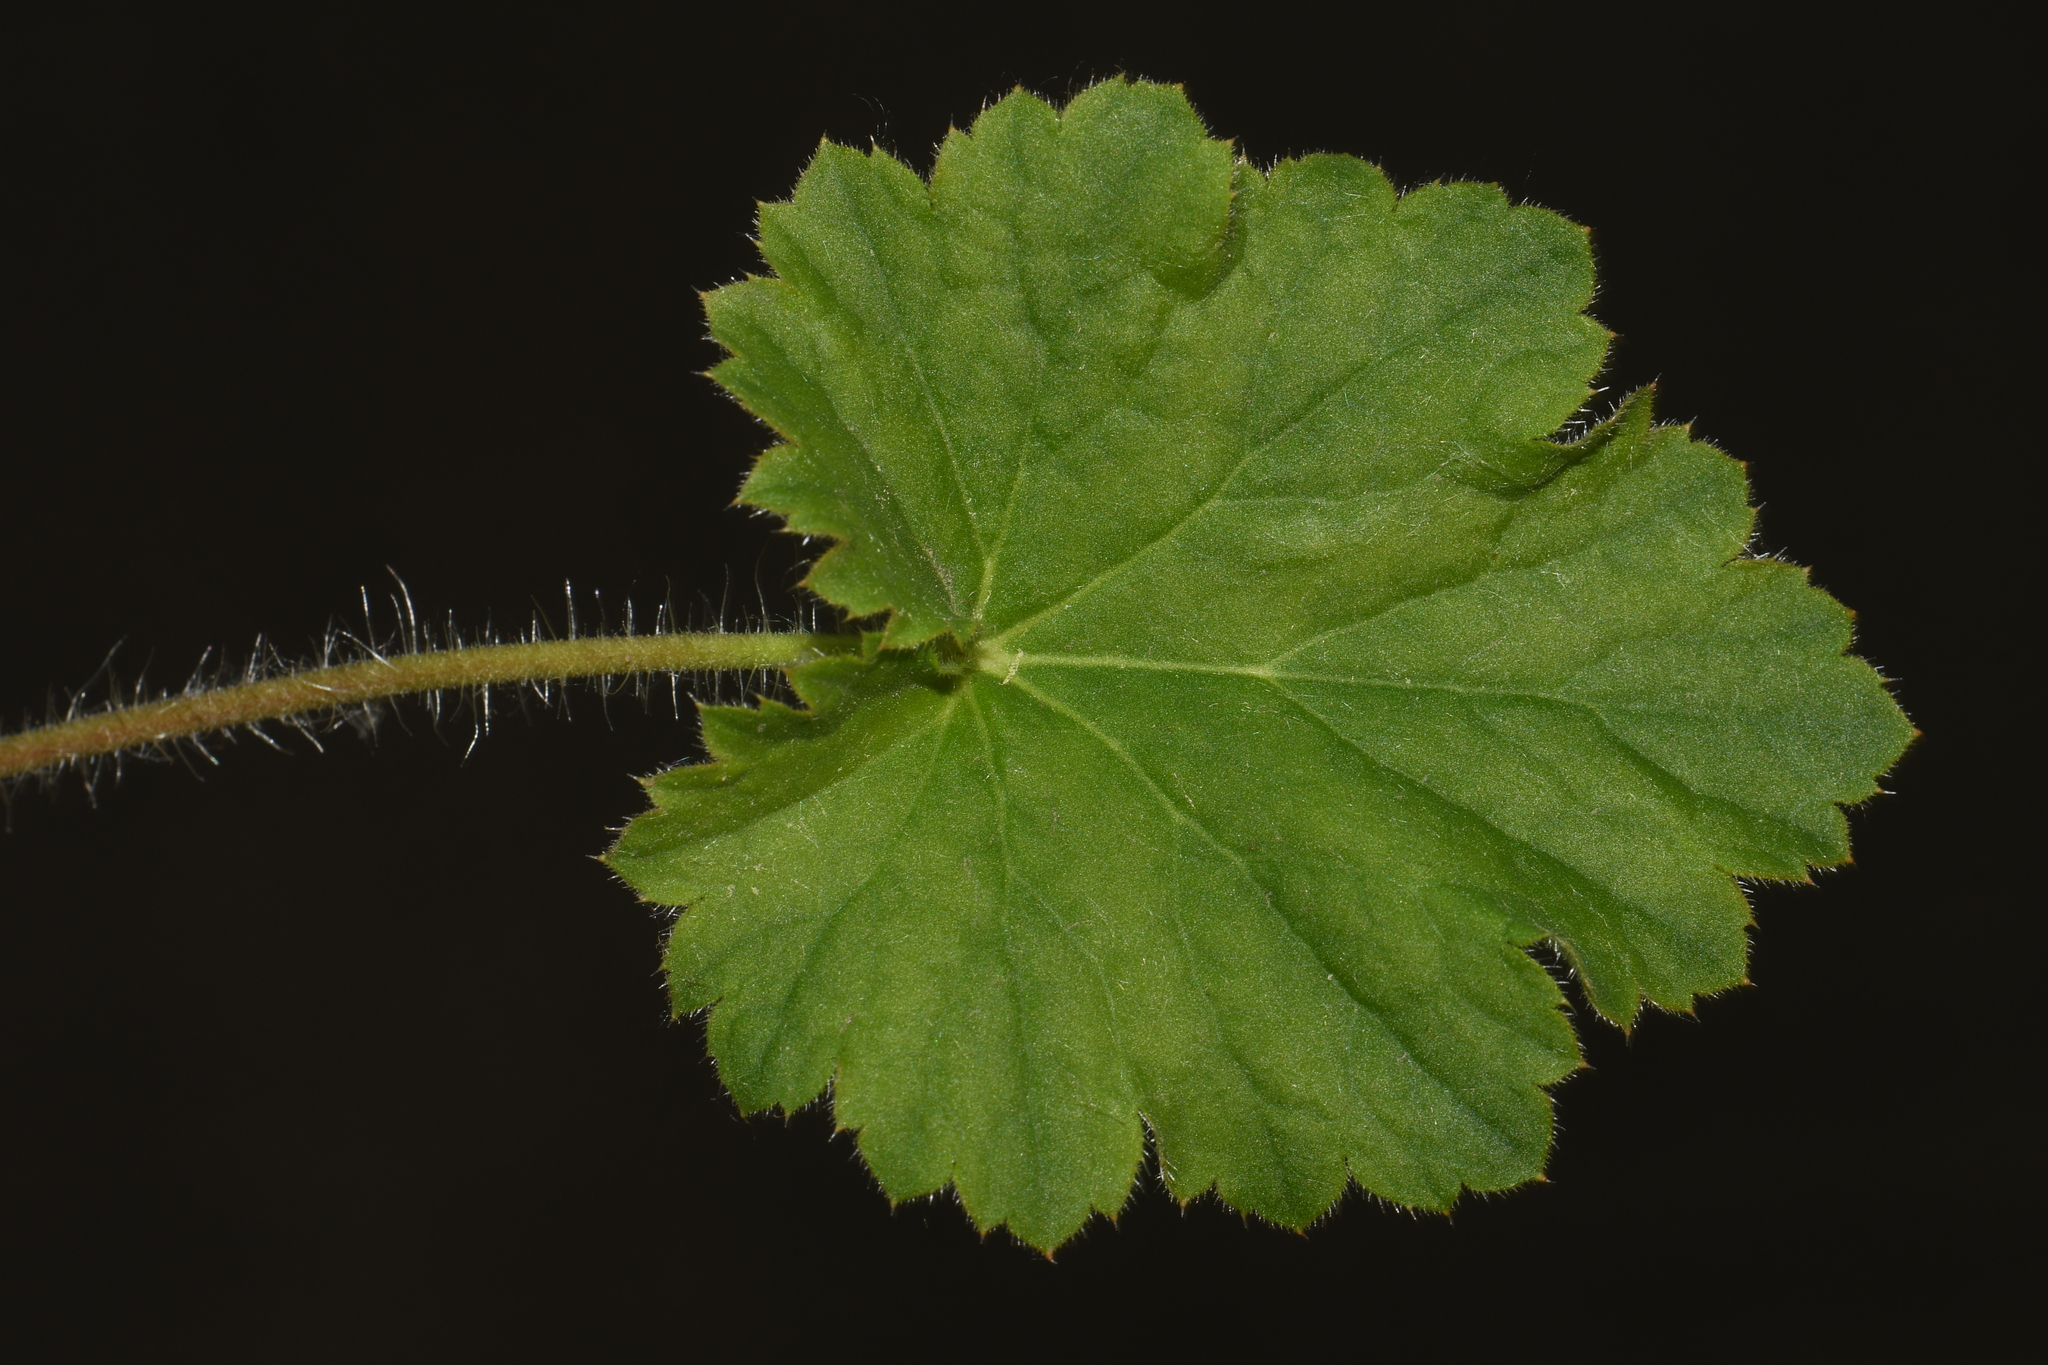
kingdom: Plantae
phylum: Tracheophyta
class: Magnoliopsida
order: Saxifragales
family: Saxifragaceae
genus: Heuchera
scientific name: Heuchera richardsonii
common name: Richardson's alumroot
